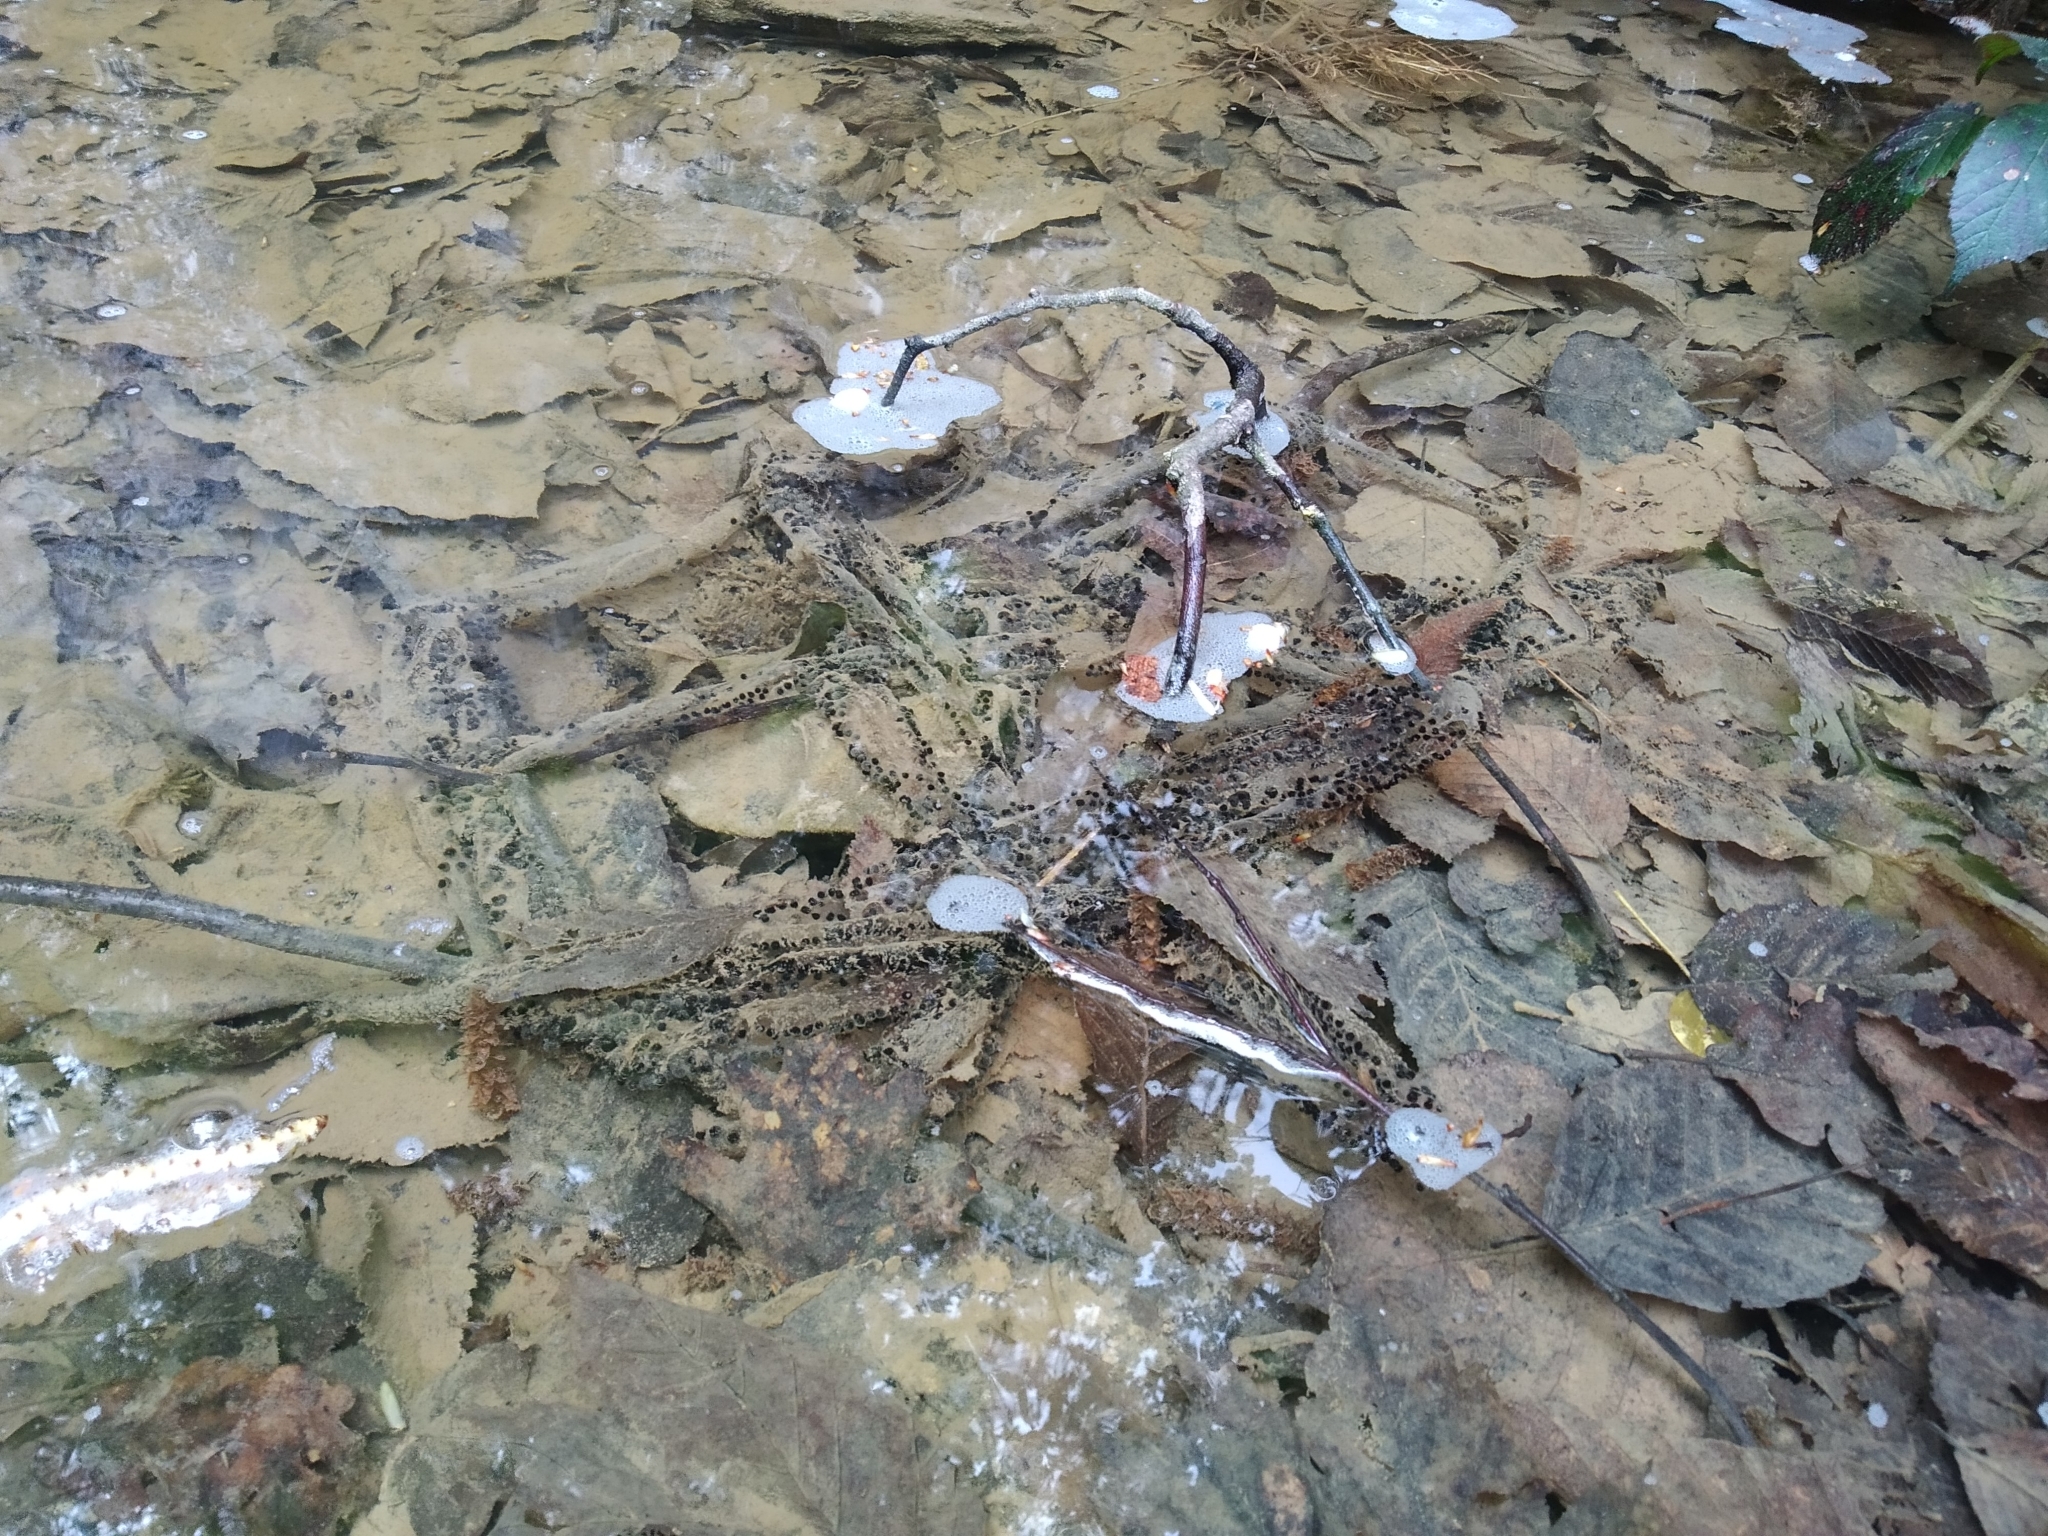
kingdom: Animalia
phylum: Chordata
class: Amphibia
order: Anura
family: Bufonidae
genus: Bufo
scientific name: Bufo bufo
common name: Common toad
